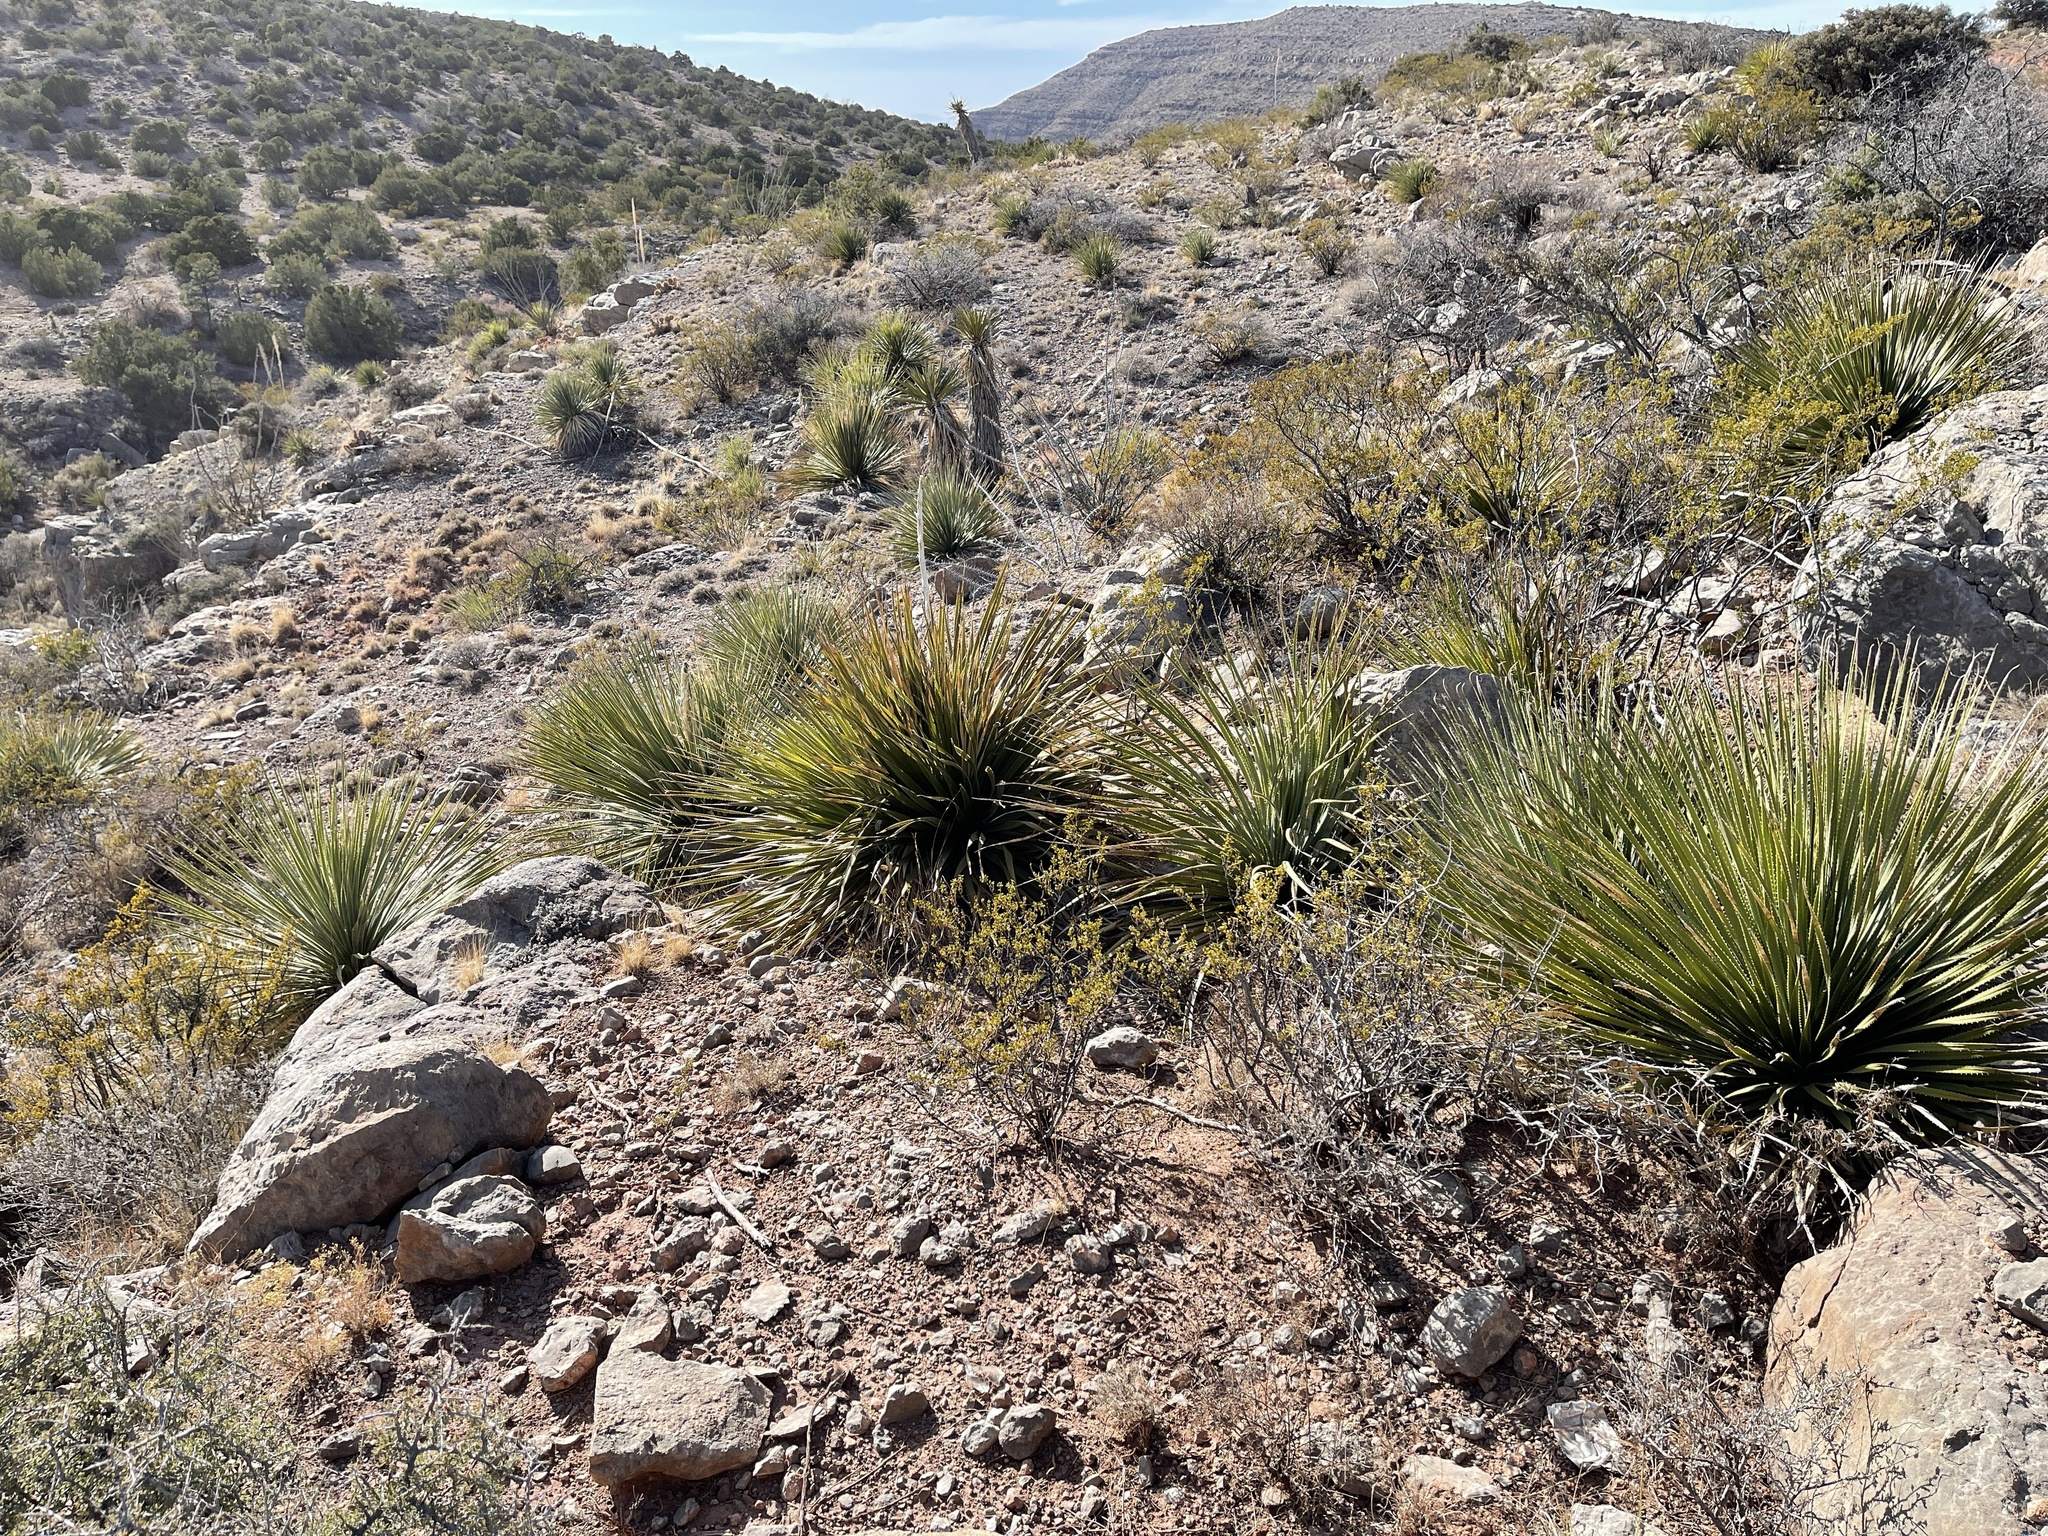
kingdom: Plantae
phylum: Tracheophyta
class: Liliopsida
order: Asparagales
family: Asparagaceae
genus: Dasylirion
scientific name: Dasylirion wheeleri
